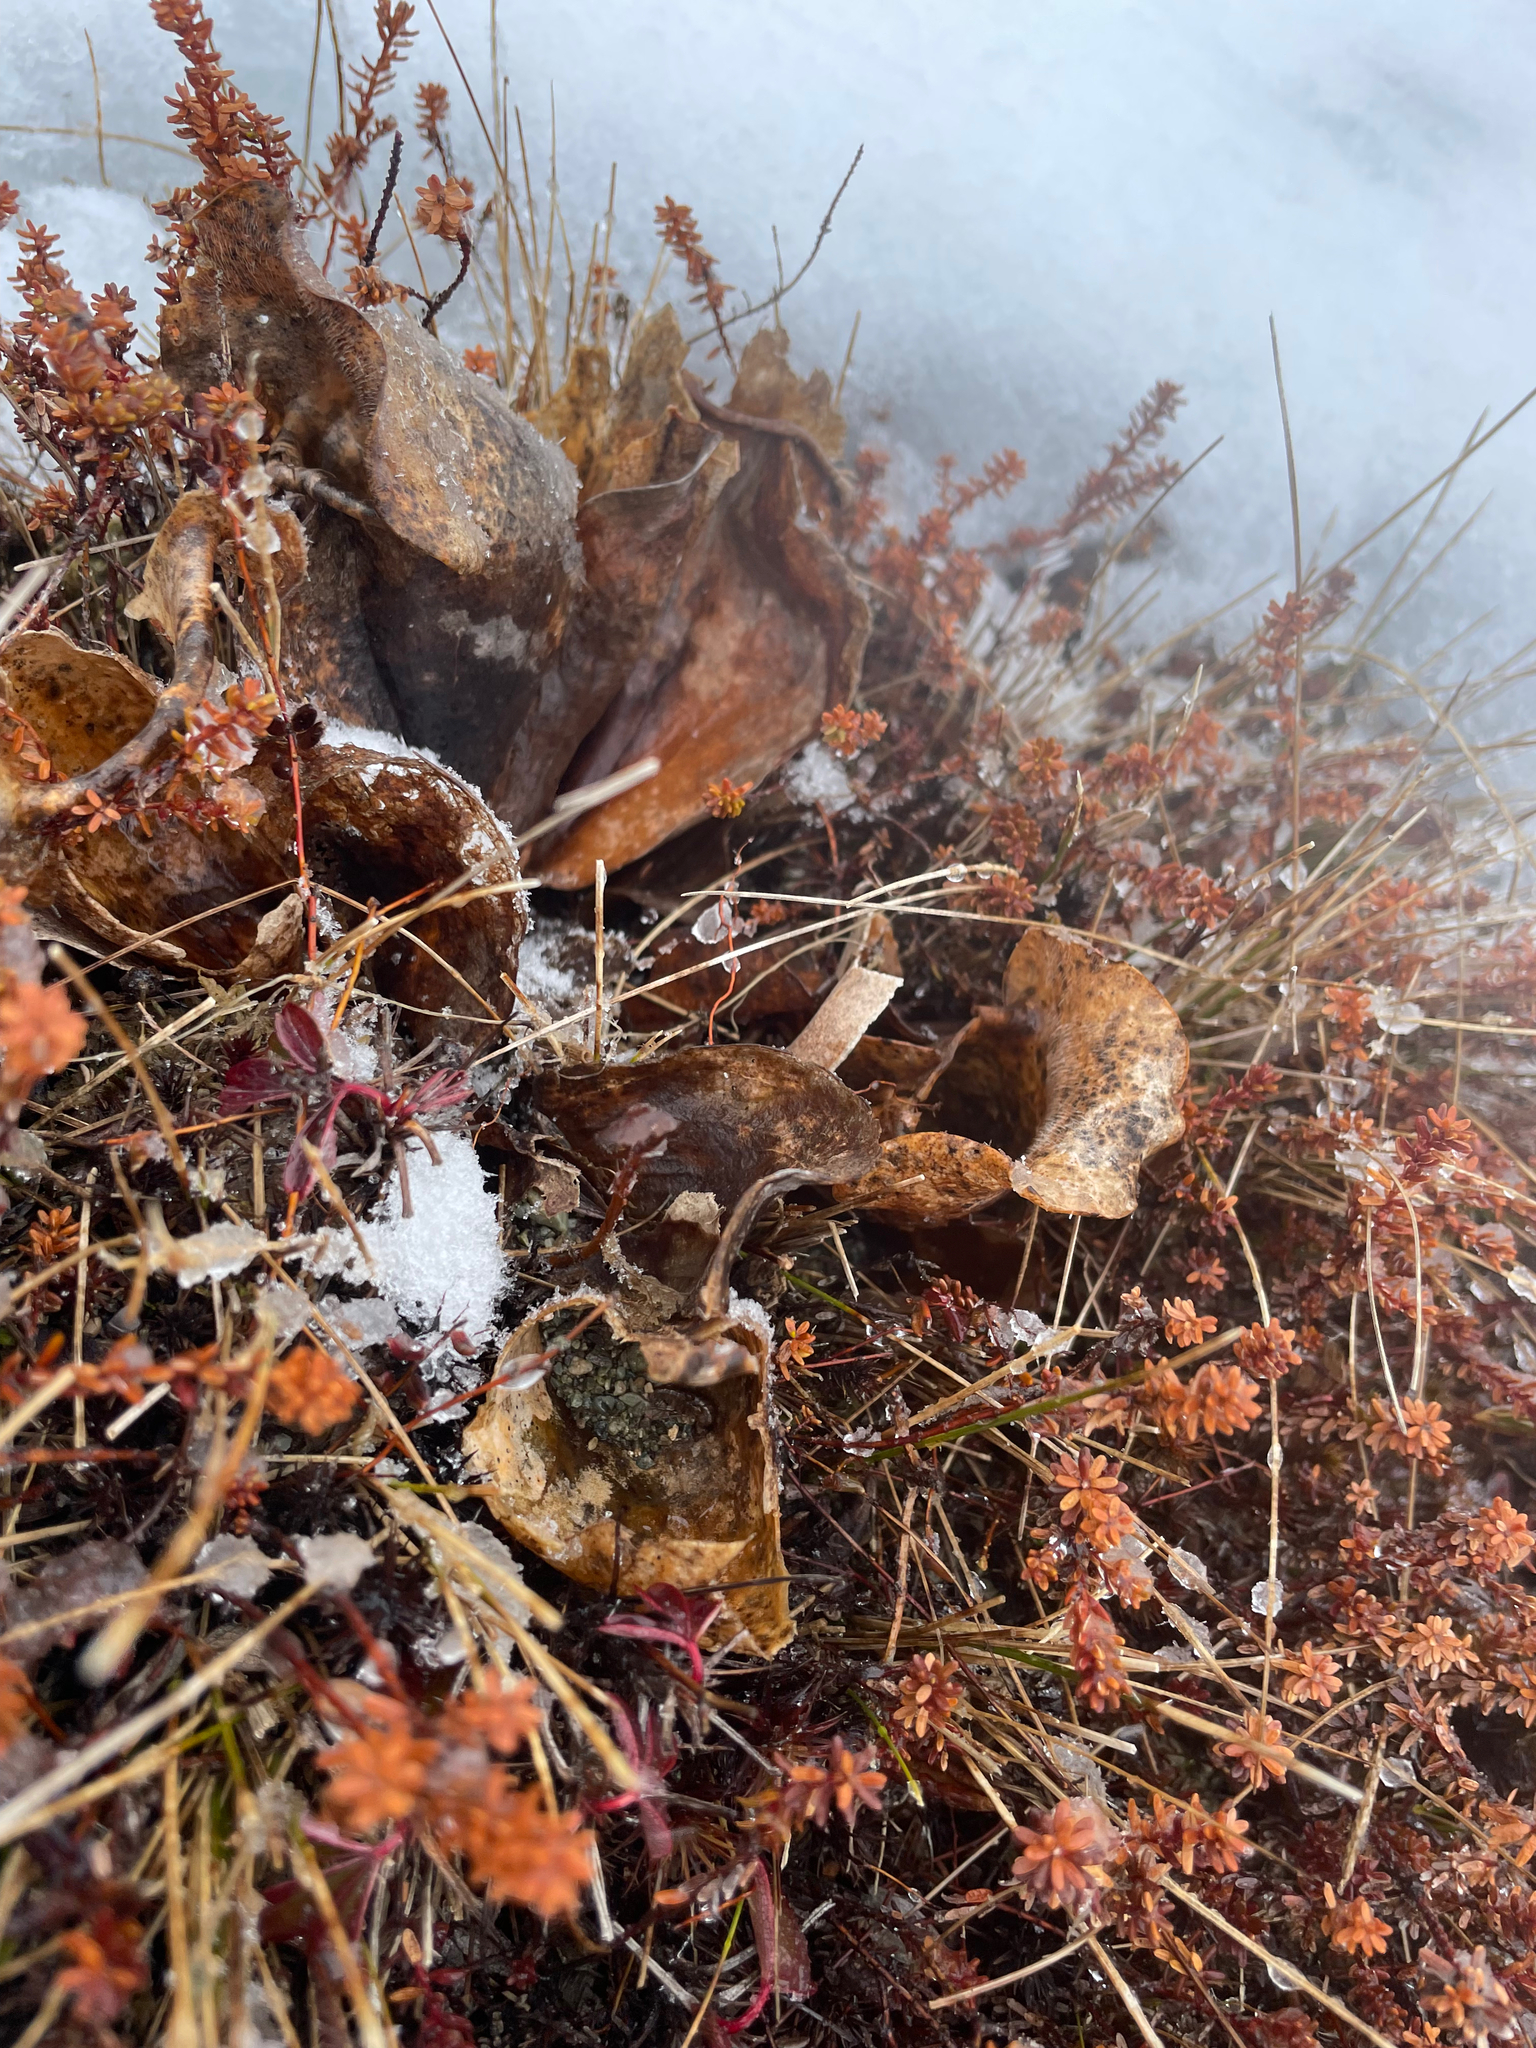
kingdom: Plantae
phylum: Tracheophyta
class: Magnoliopsida
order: Ericales
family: Sarraceniaceae
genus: Sarracenia
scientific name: Sarracenia purpurea
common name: Pitcherplant
